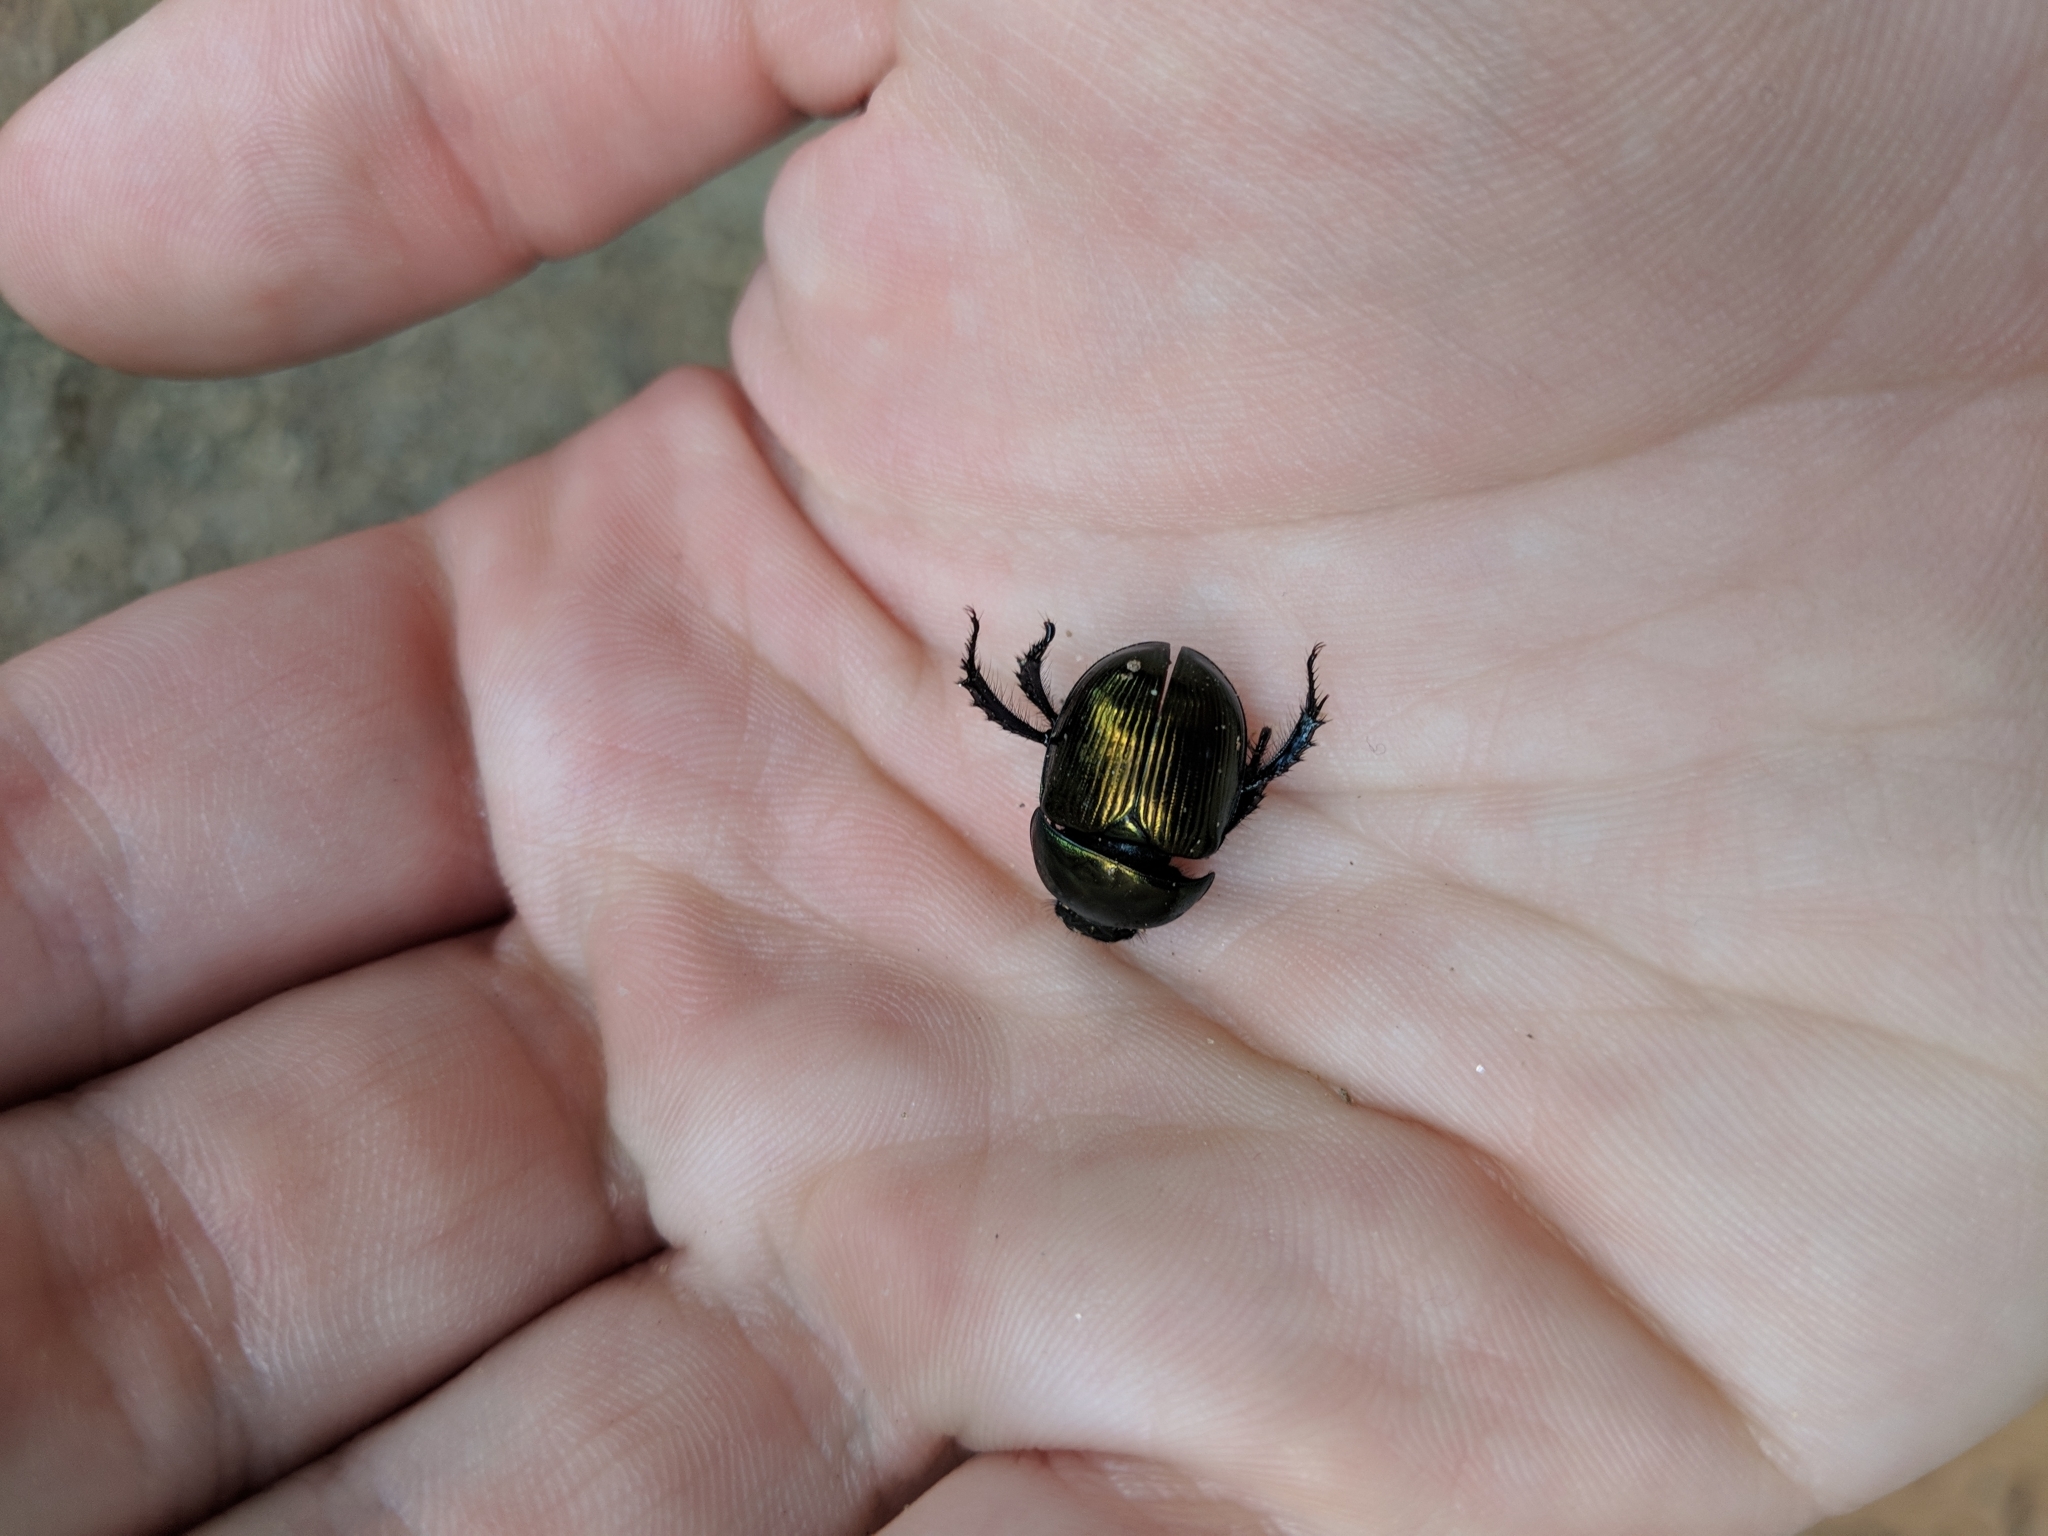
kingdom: Animalia
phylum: Arthropoda
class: Insecta
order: Coleoptera
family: Geotrupidae
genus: Geotrupes
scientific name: Geotrupes splendidus
